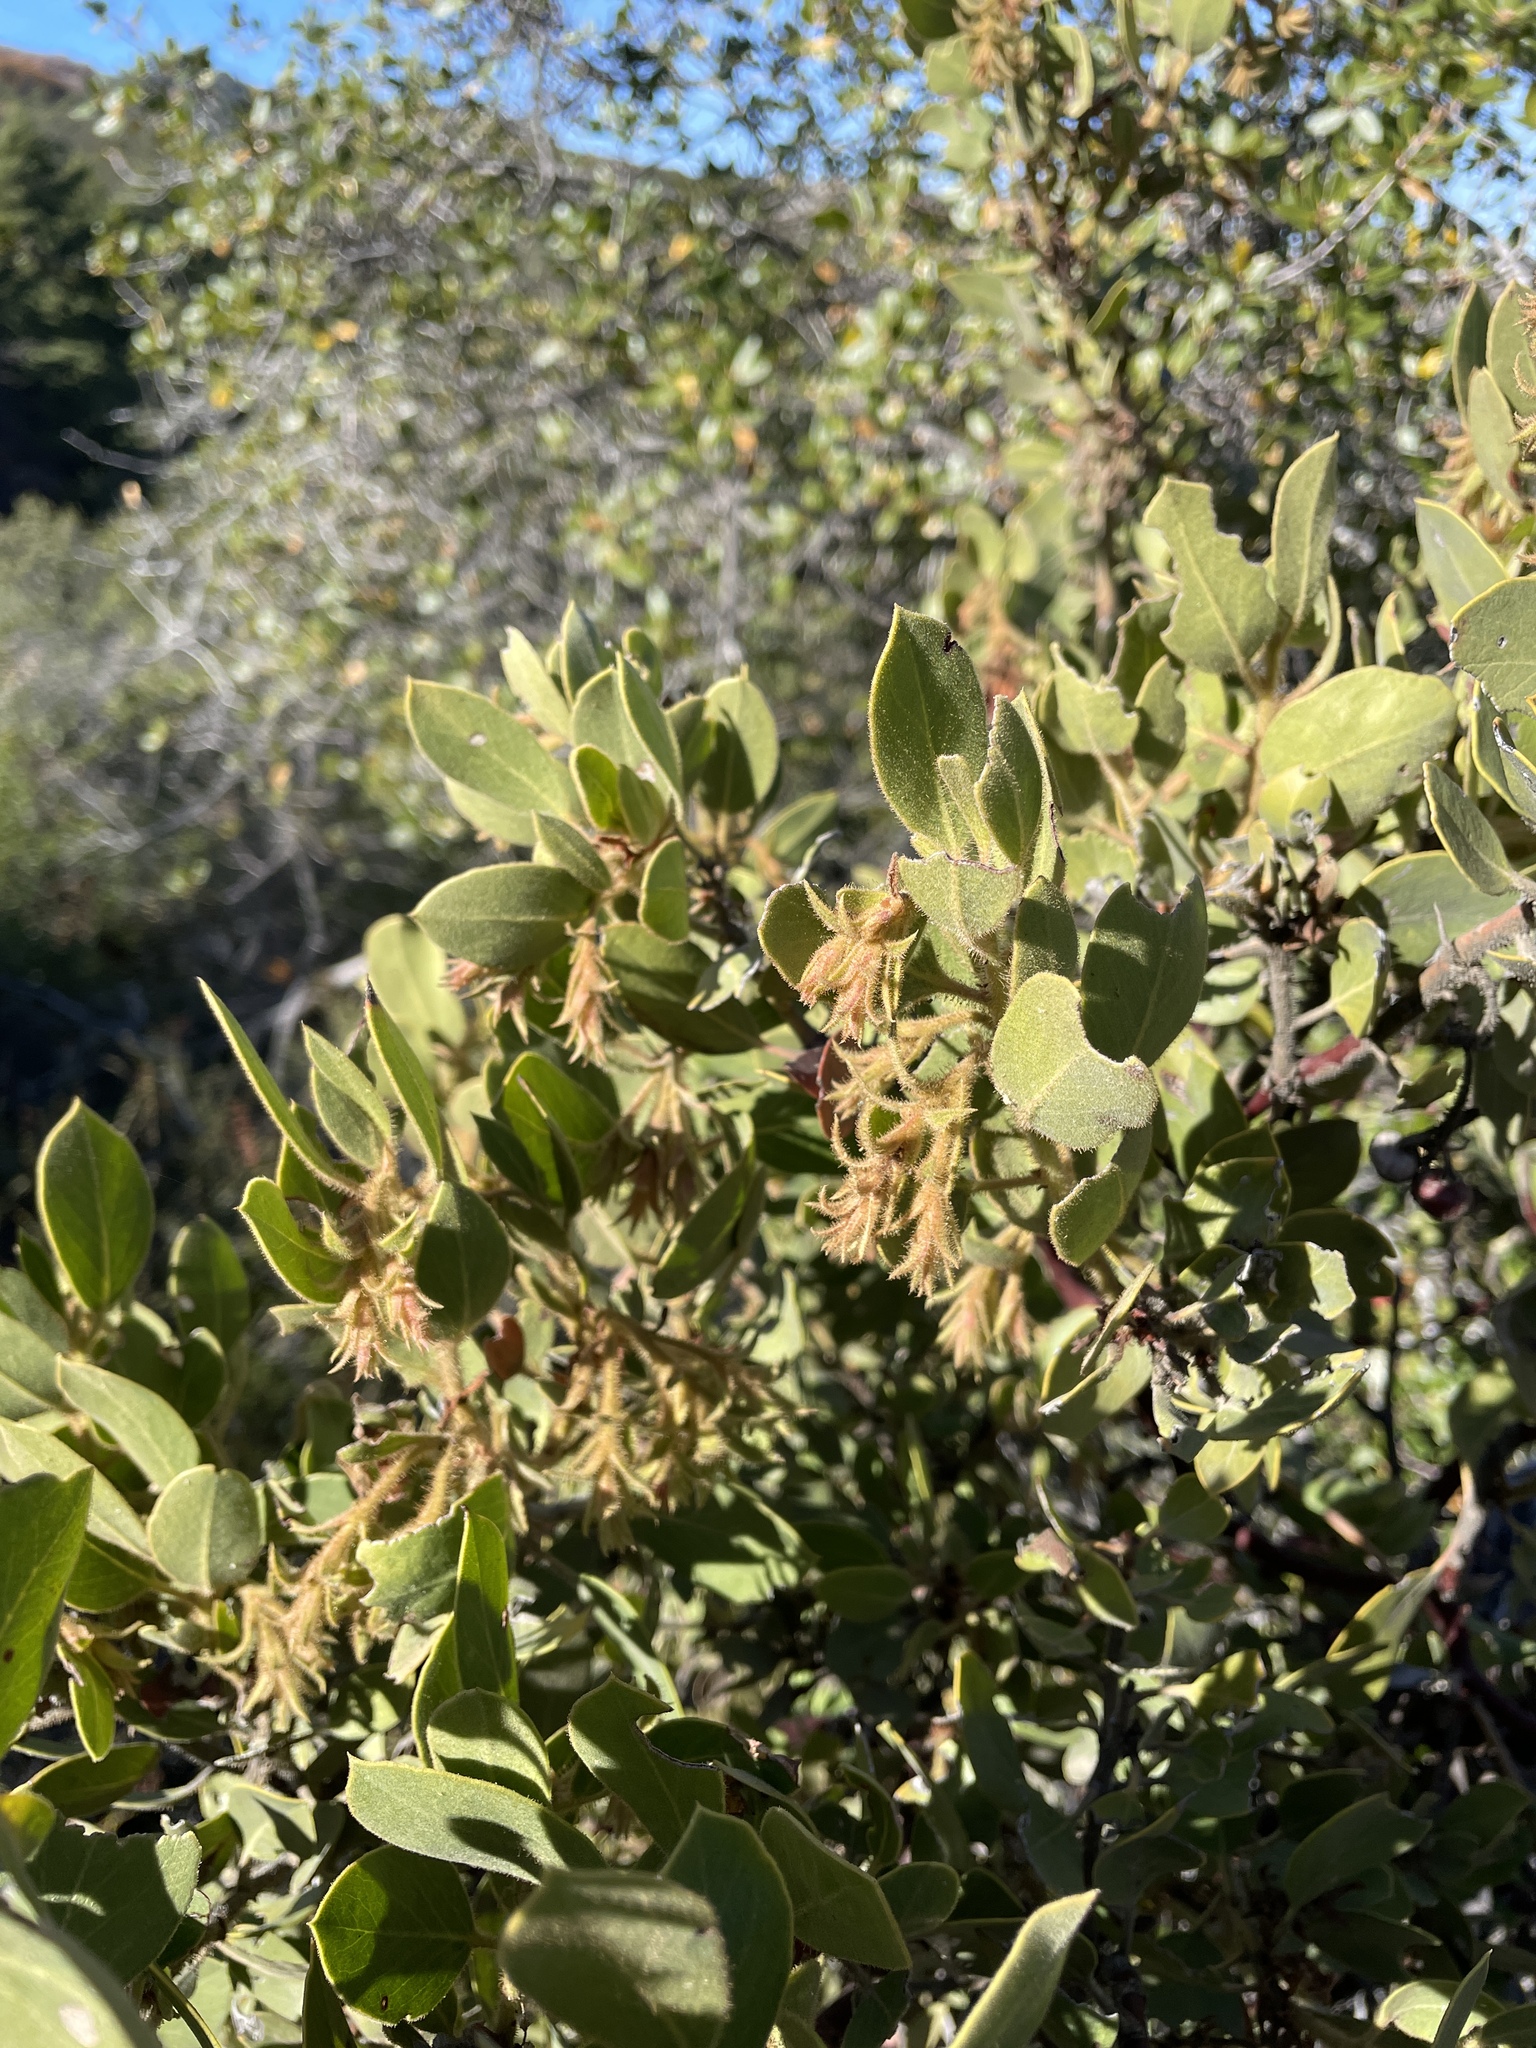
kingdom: Plantae
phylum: Tracheophyta
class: Magnoliopsida
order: Ericales
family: Ericaceae
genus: Arctostaphylos
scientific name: Arctostaphylos glandulosa
